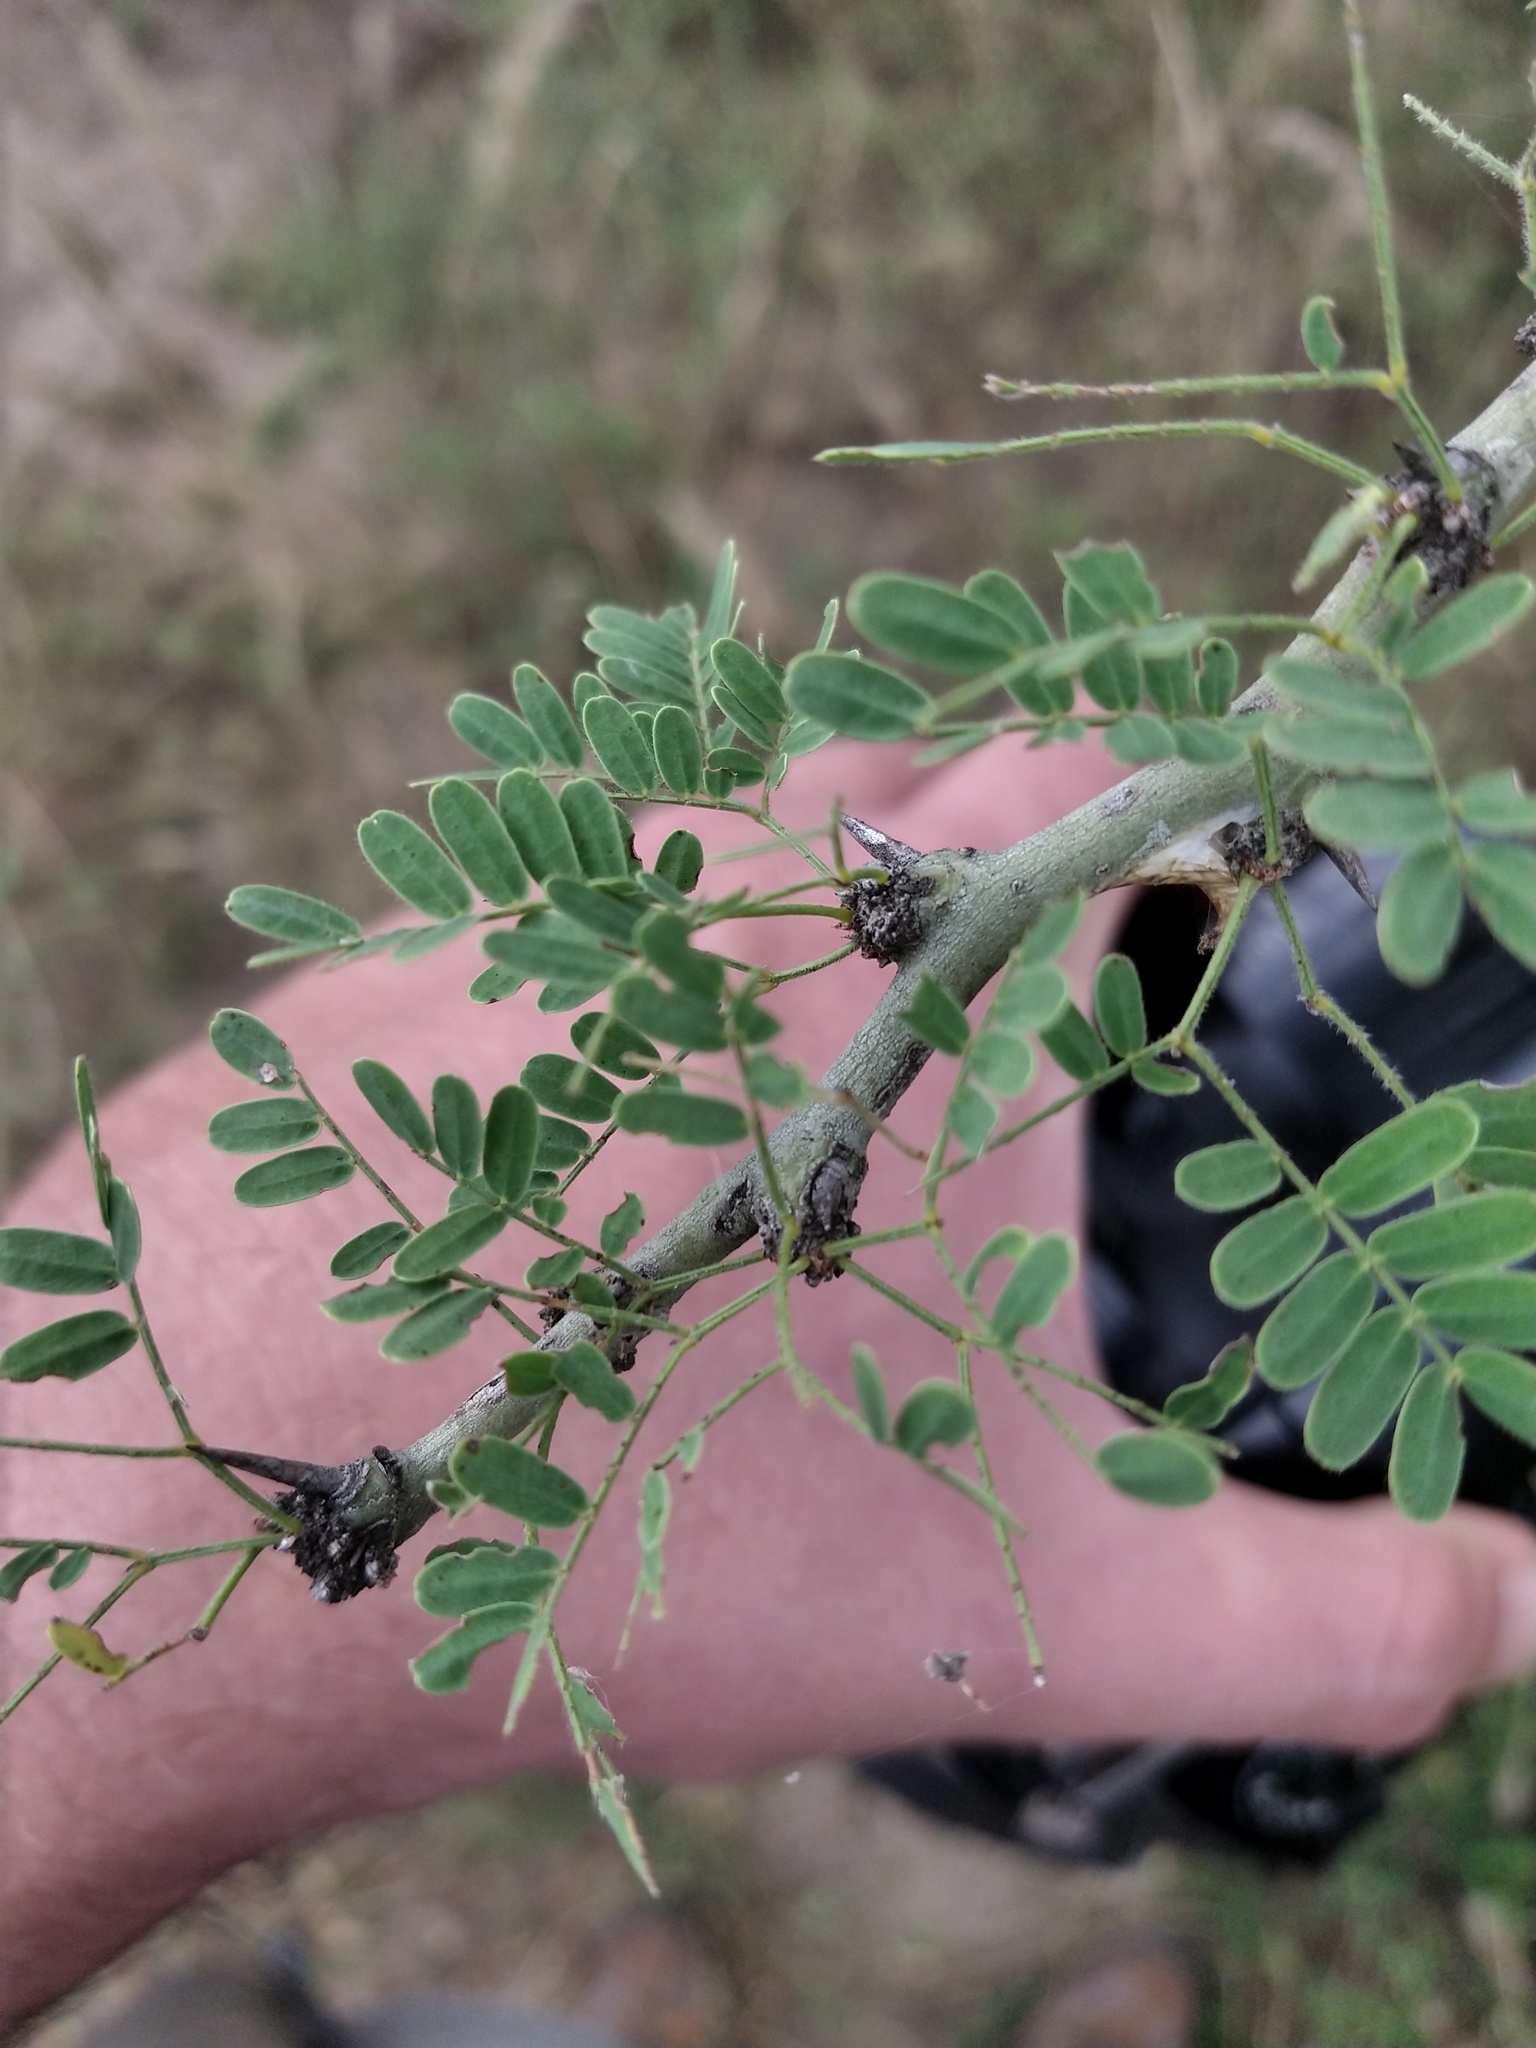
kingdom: Plantae
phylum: Tracheophyta
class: Magnoliopsida
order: Fabales
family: Fabaceae
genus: Parkinsonia
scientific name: Parkinsonia praecox
